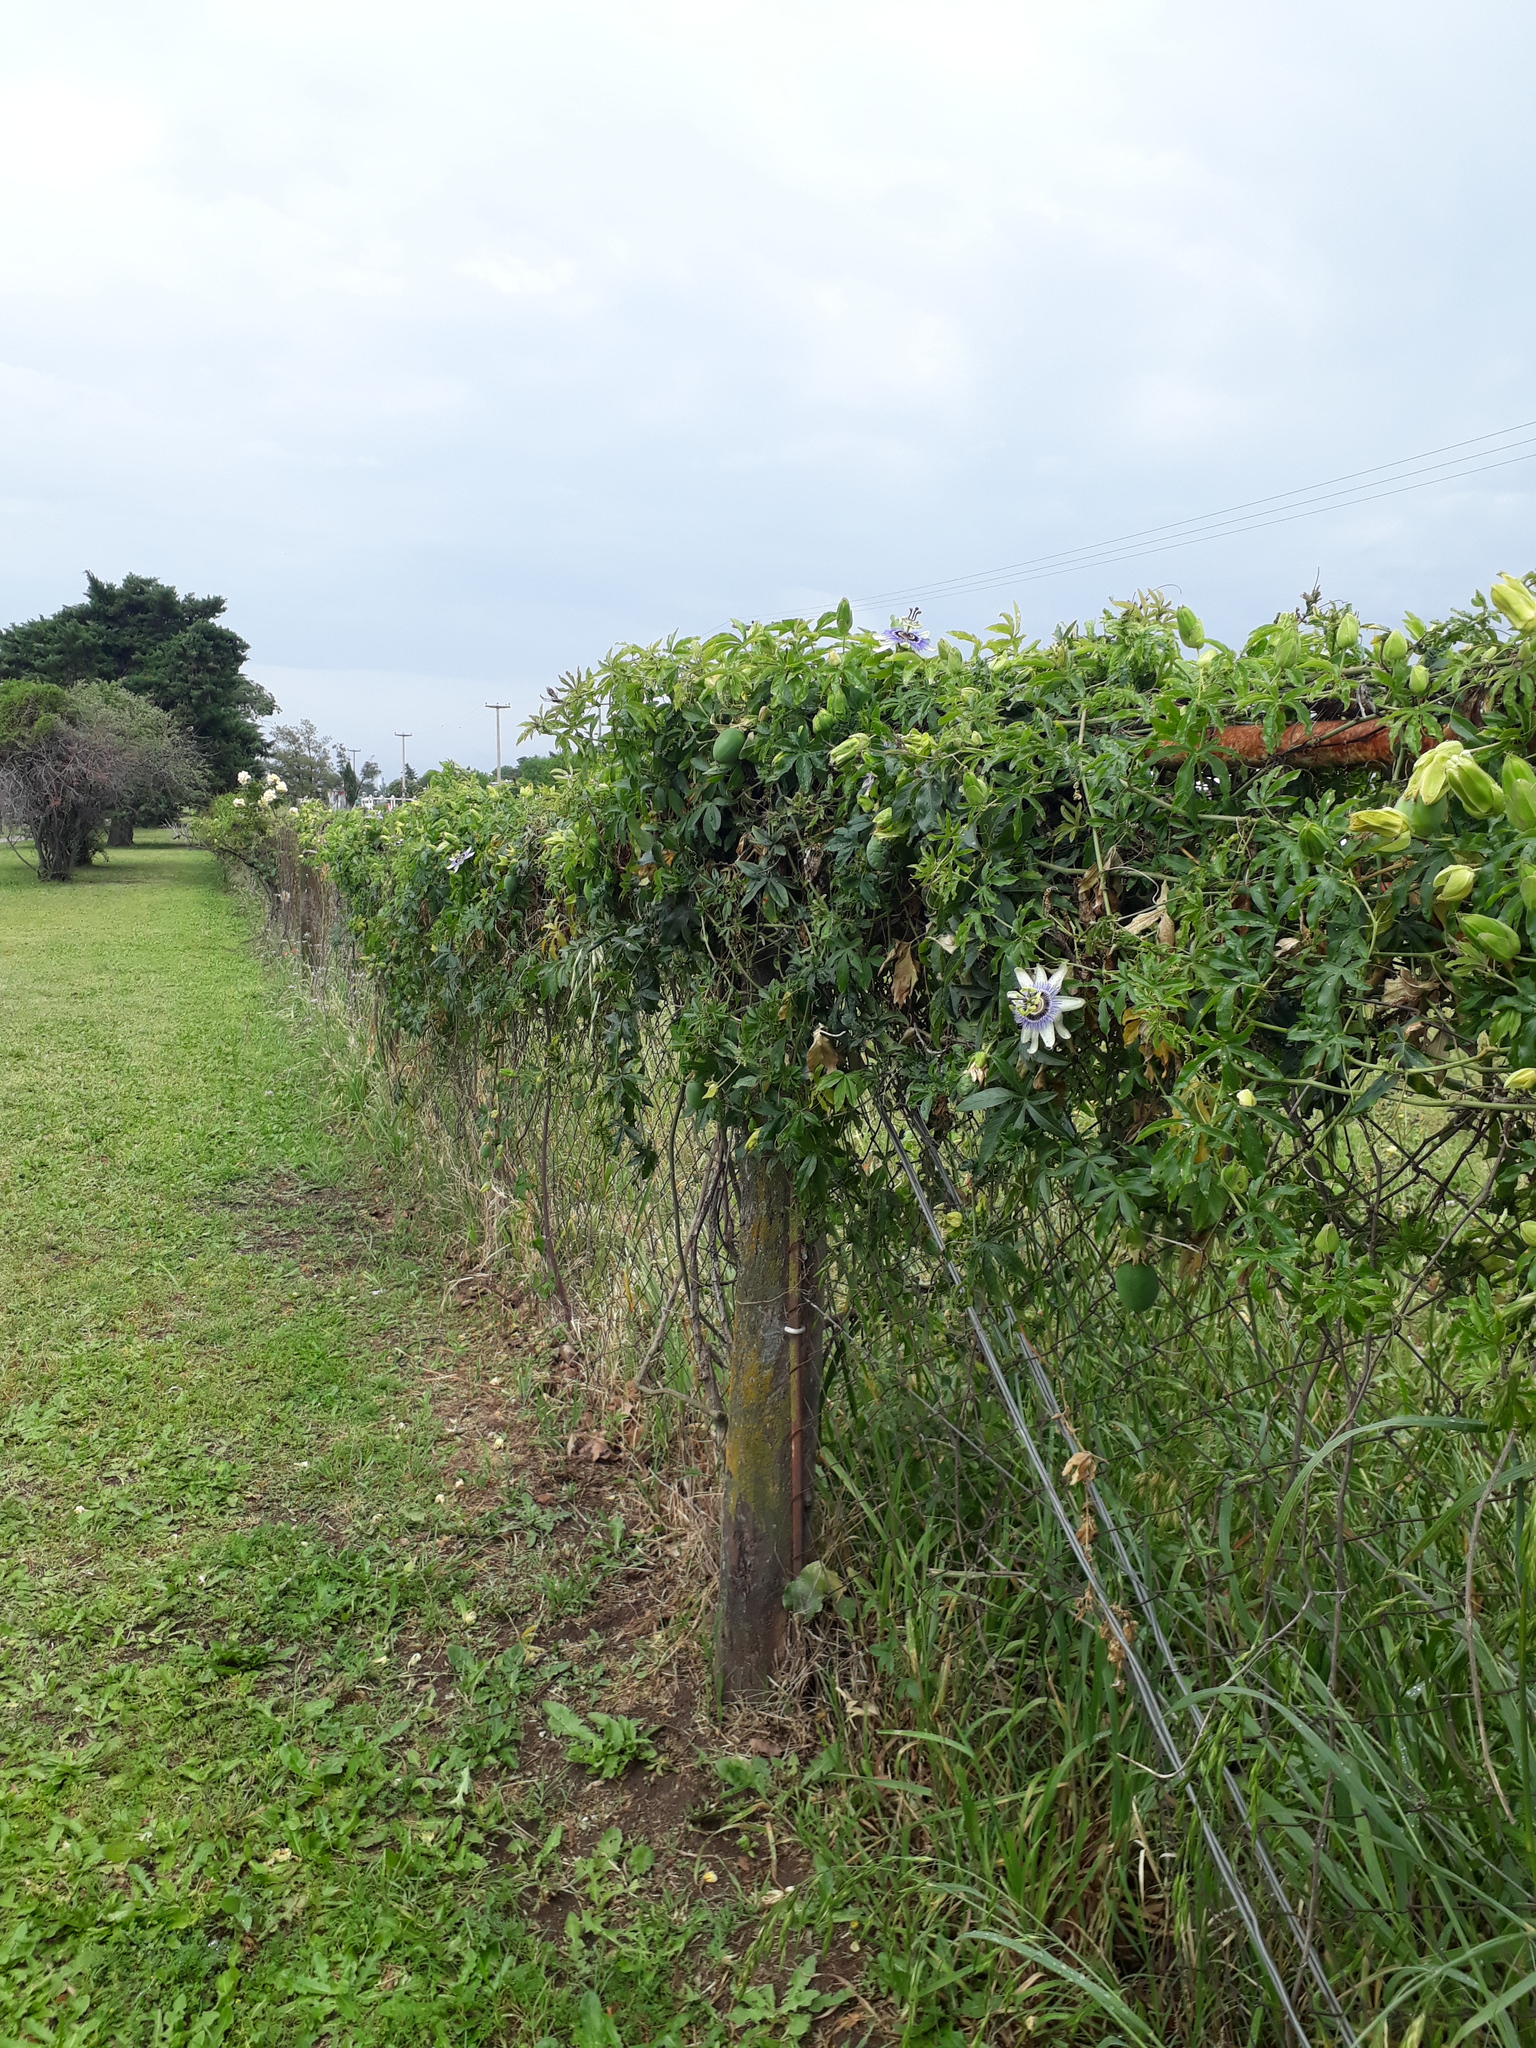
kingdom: Plantae
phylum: Tracheophyta
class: Magnoliopsida
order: Malpighiales
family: Passifloraceae
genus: Passiflora
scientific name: Passiflora caerulea
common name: Blue passionflower
